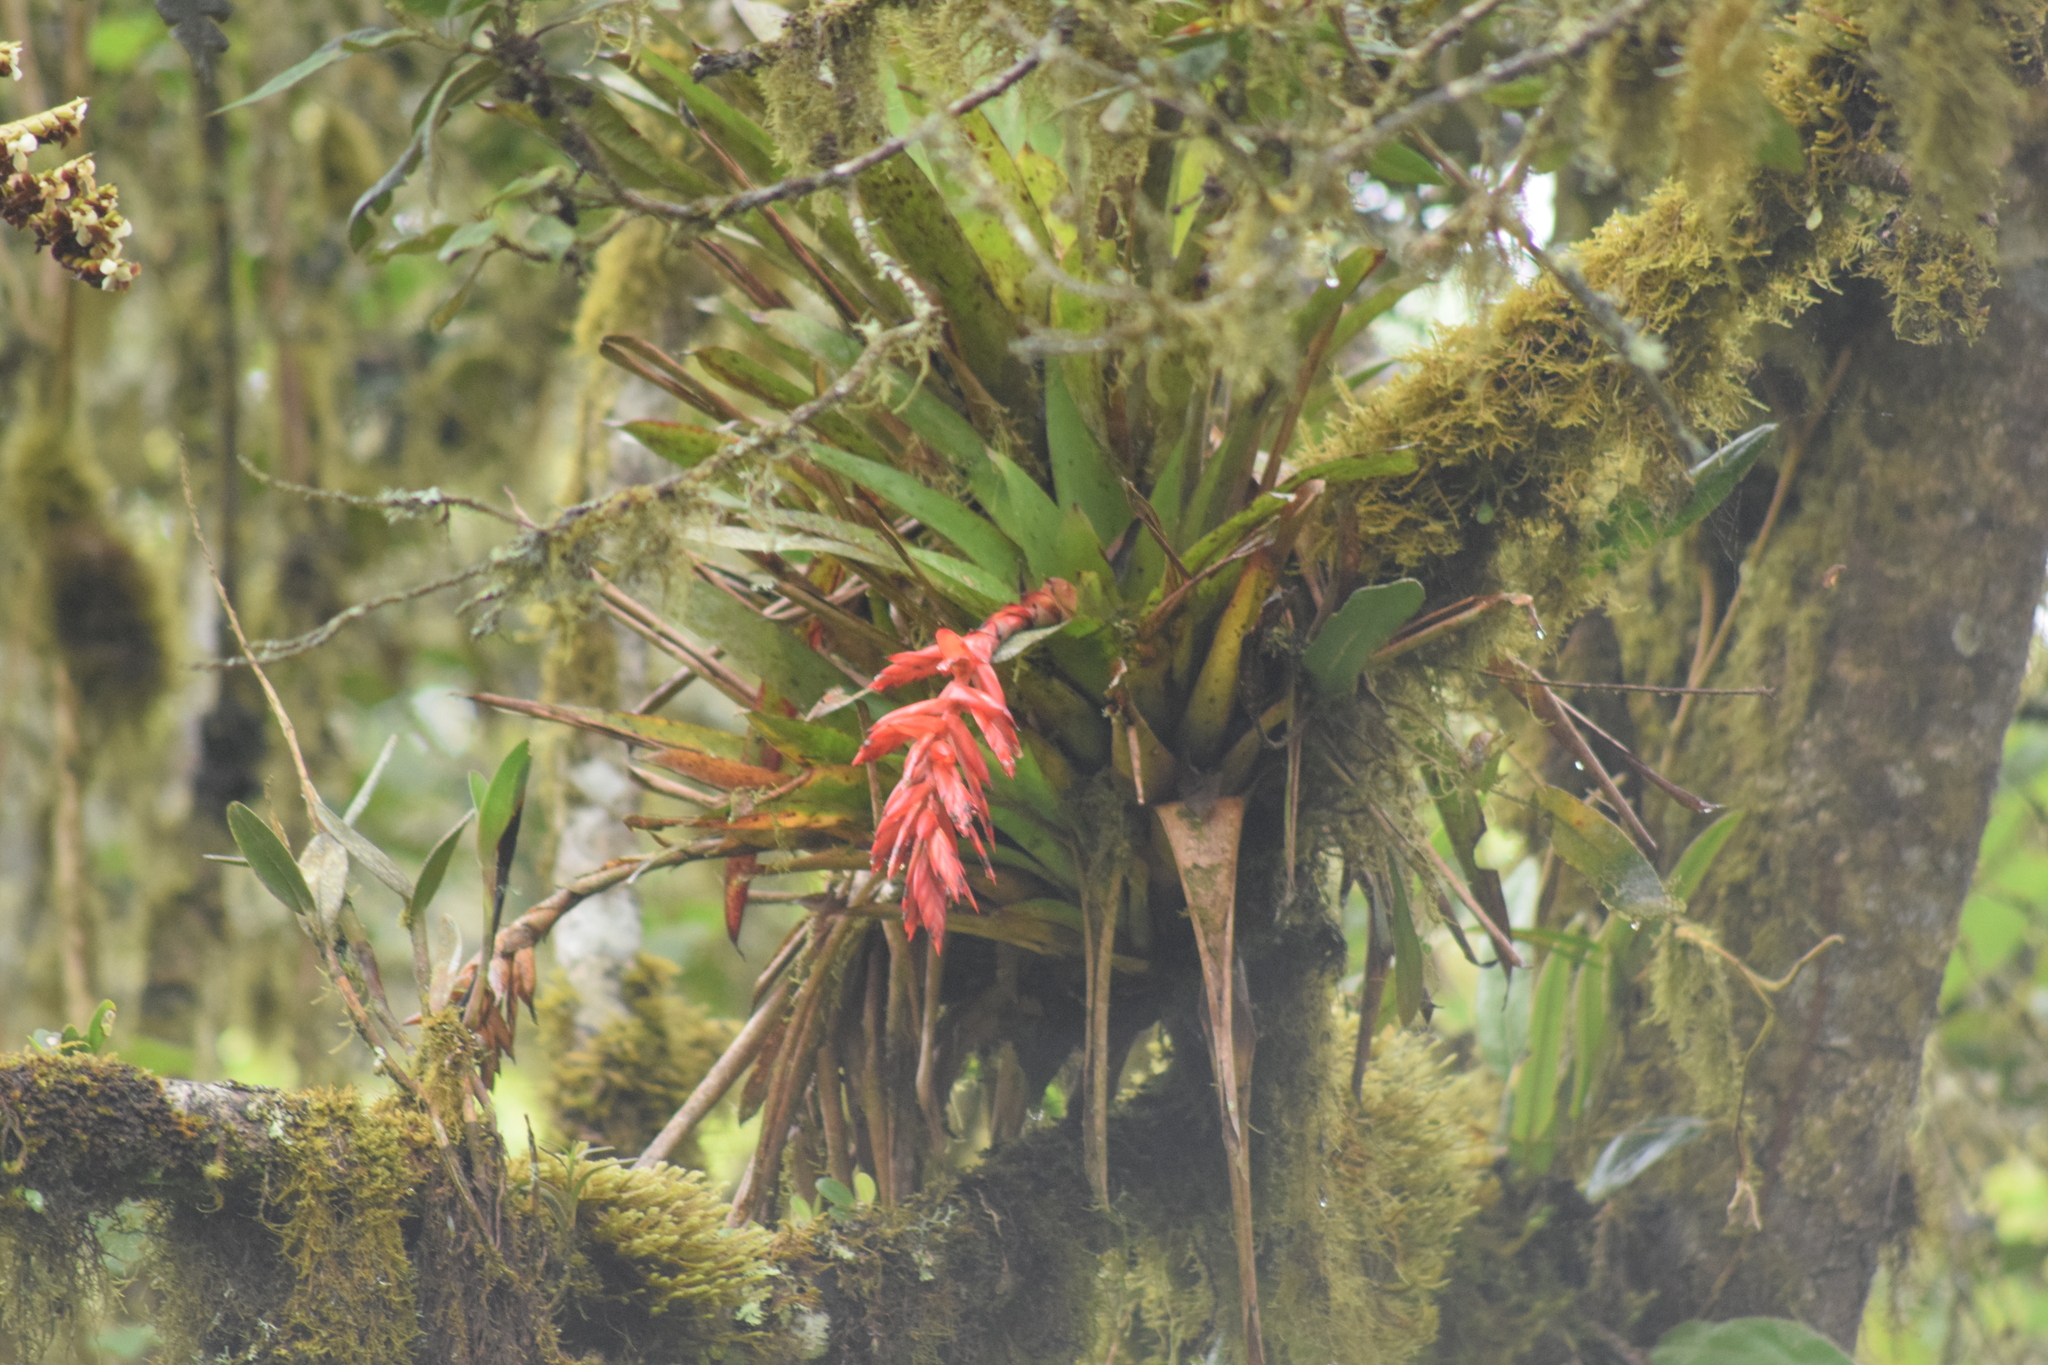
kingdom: Plantae
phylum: Tracheophyta
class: Liliopsida
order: Poales
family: Bromeliaceae
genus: Tillandsia
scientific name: Tillandsia compacta
